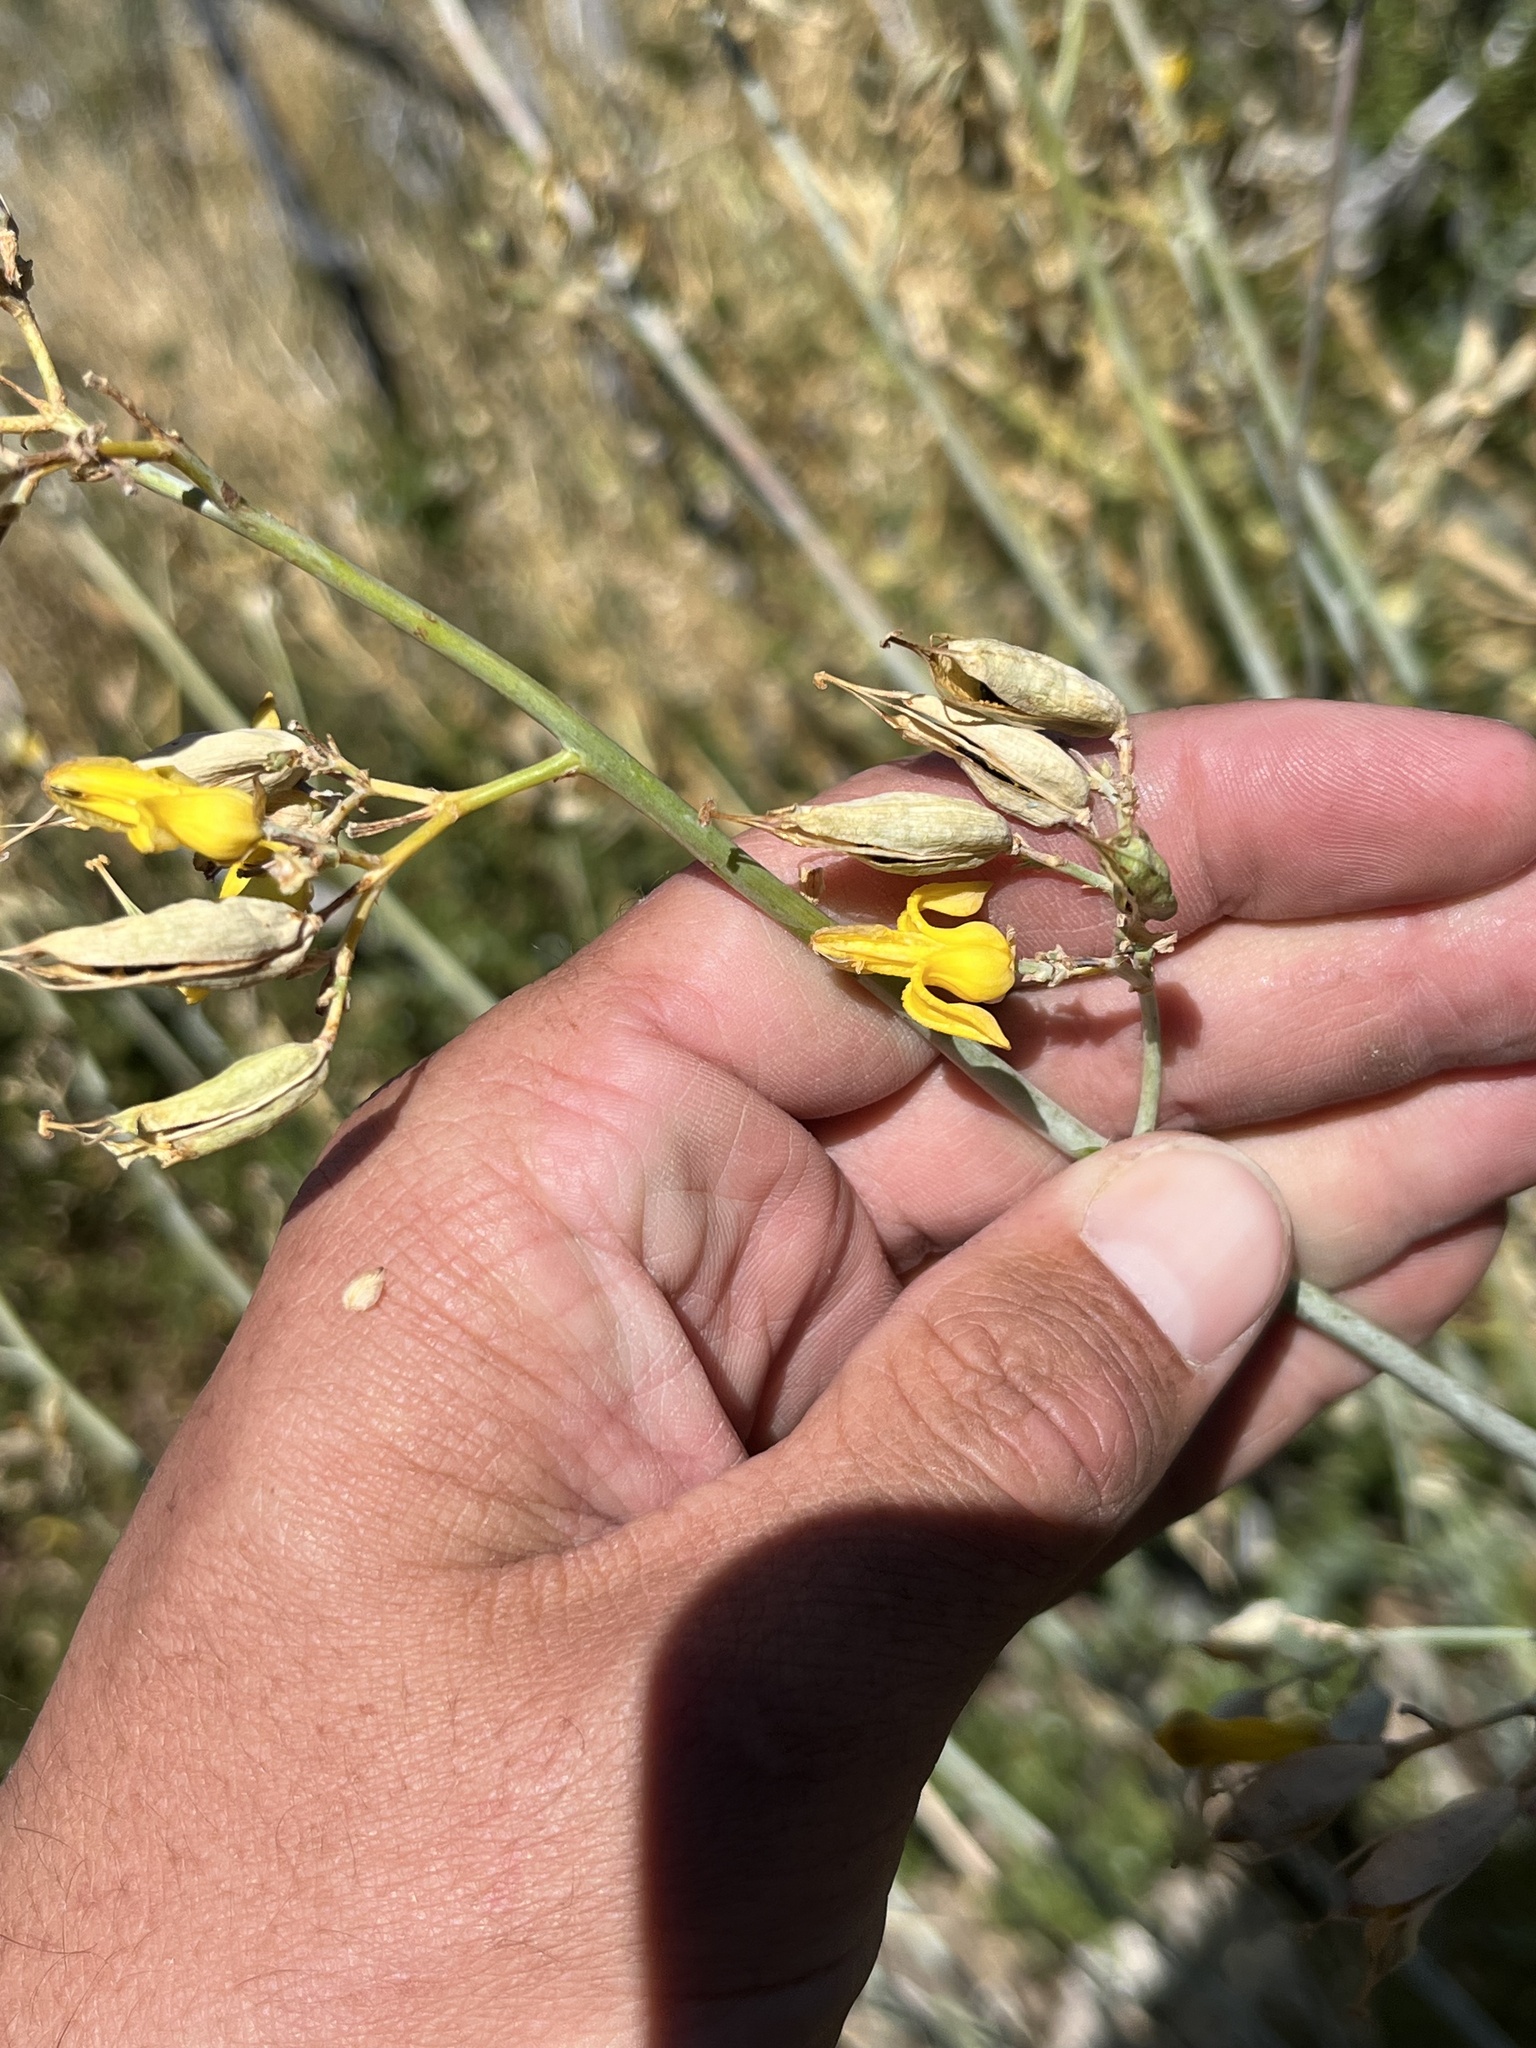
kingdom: Plantae
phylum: Tracheophyta
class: Magnoliopsida
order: Ranunculales
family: Papaveraceae
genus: Ehrendorferia
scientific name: Ehrendorferia chrysantha
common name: Golden eardrops
